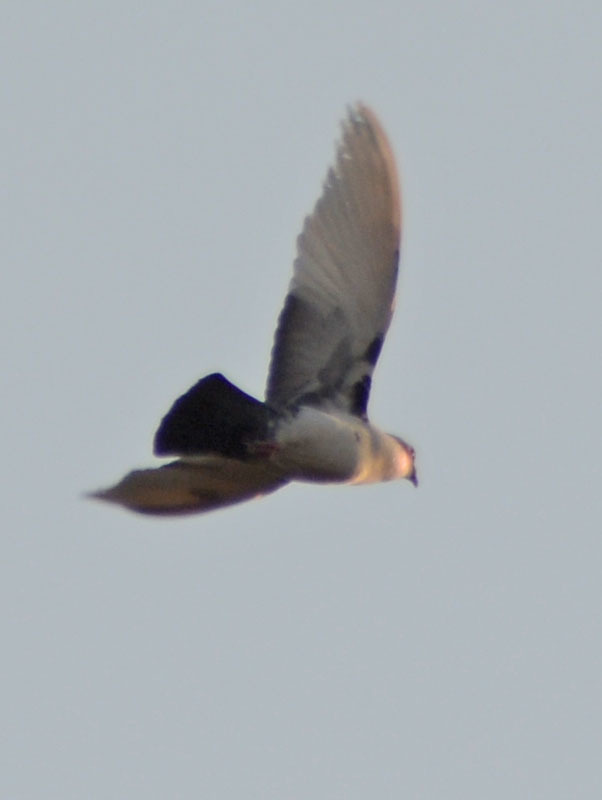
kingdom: Animalia
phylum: Chordata
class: Aves
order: Columbiformes
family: Columbidae
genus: Columba
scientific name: Columba livia
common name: Rock pigeon
